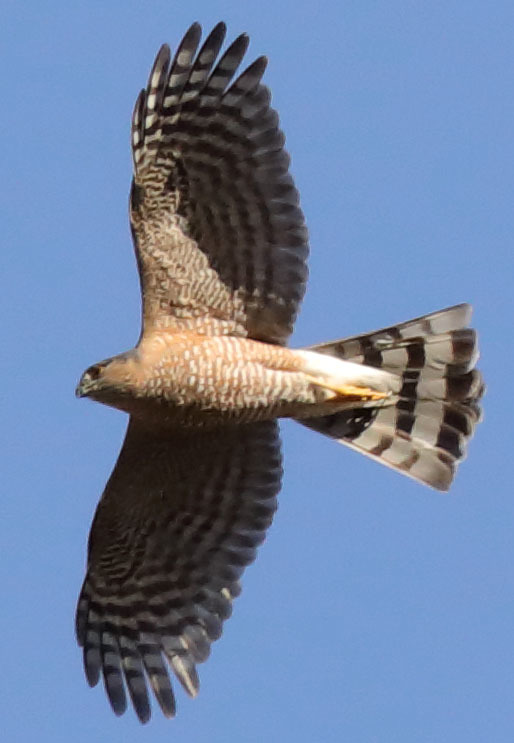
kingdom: Animalia
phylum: Chordata
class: Aves
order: Accipitriformes
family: Accipitridae
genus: Accipiter
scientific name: Accipiter striatus
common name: Sharp-shinned hawk
